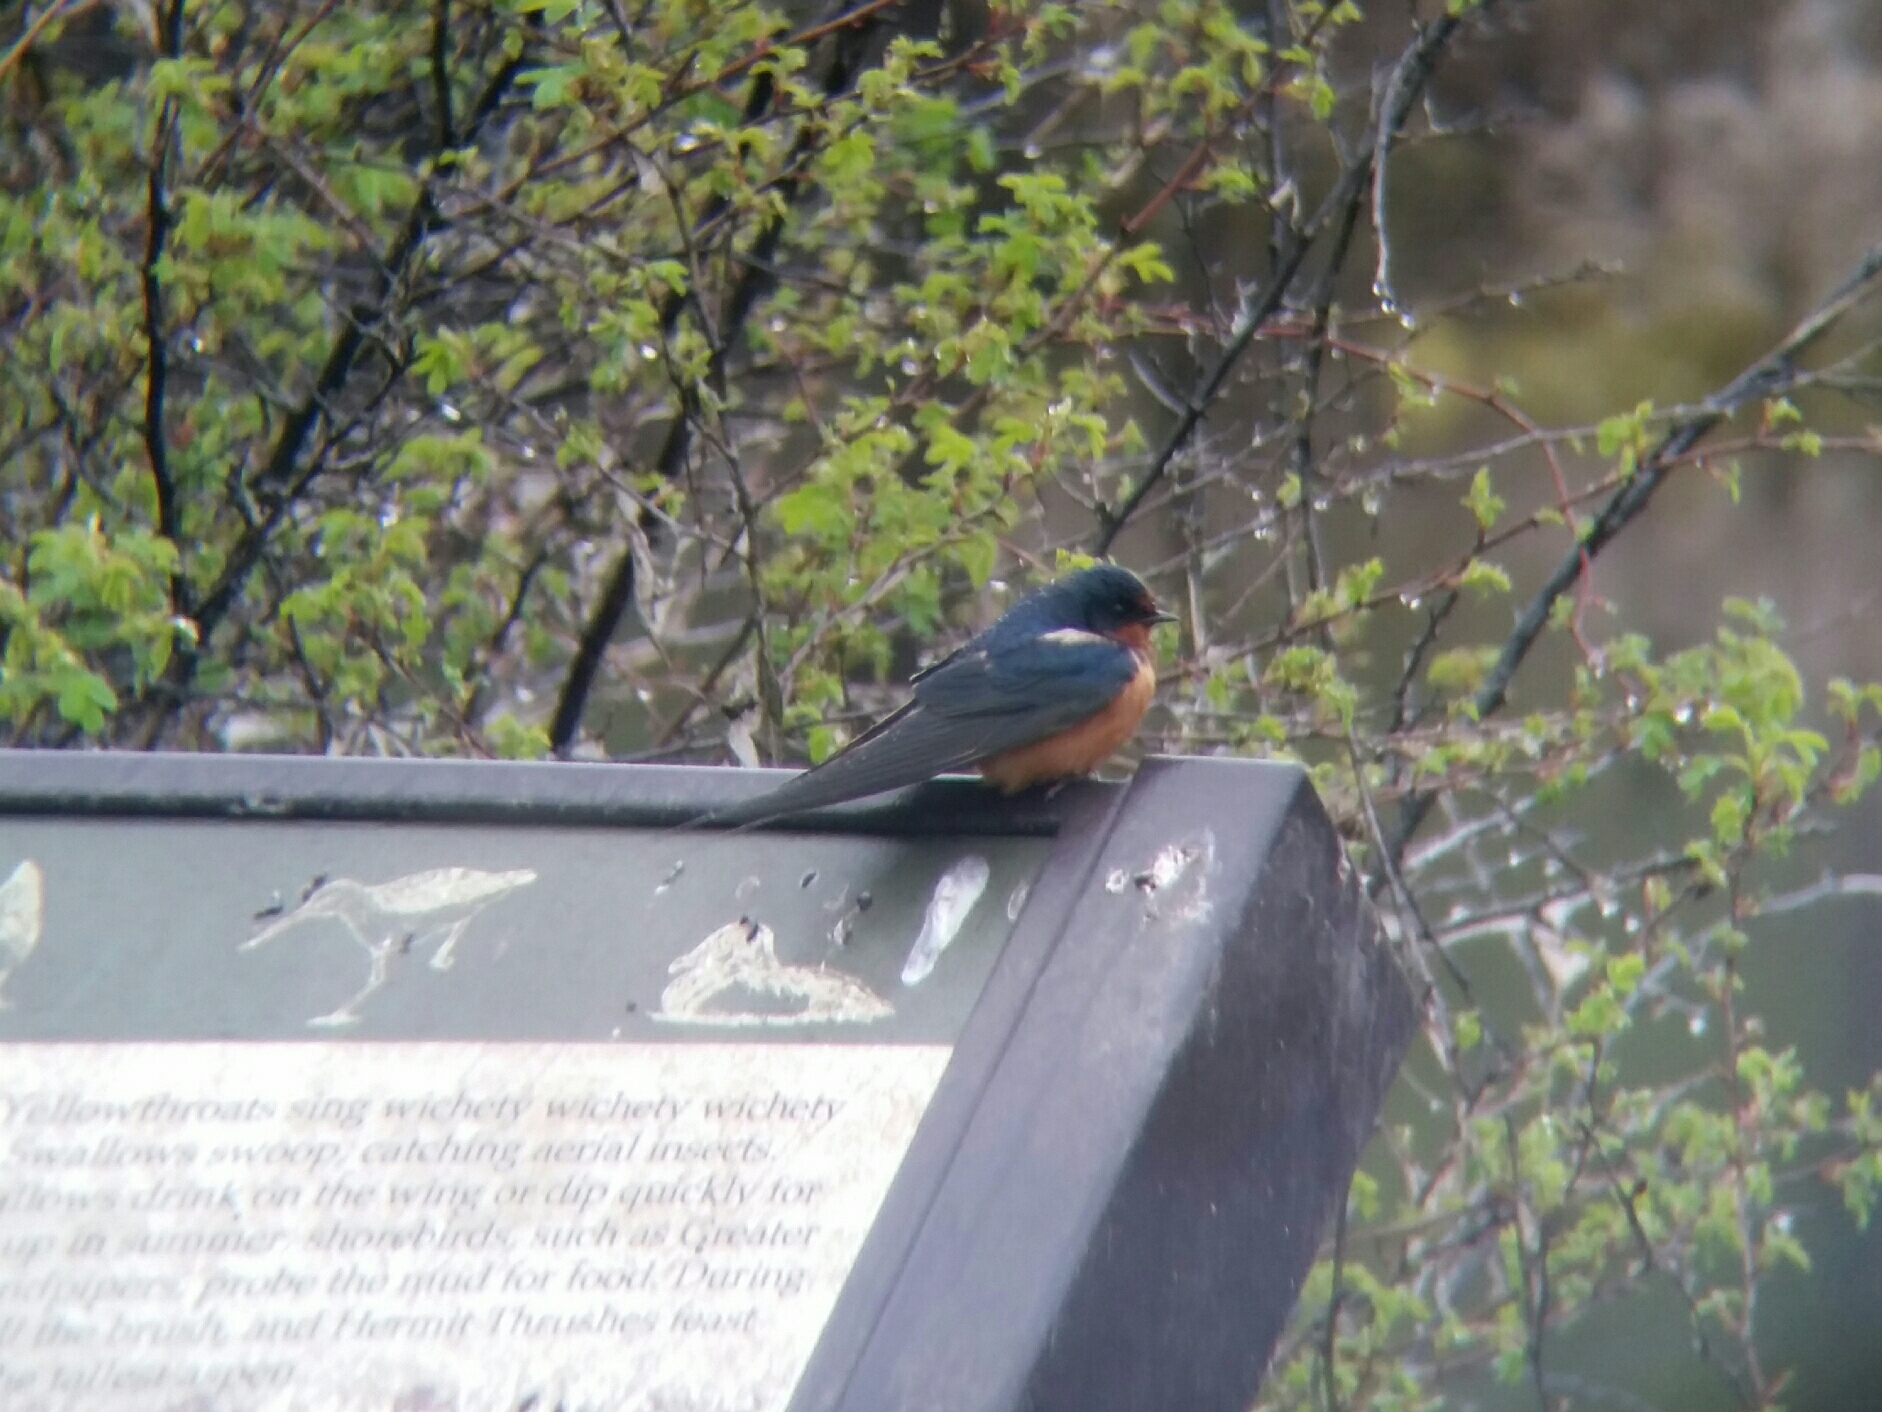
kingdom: Animalia
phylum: Chordata
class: Aves
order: Passeriformes
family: Hirundinidae
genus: Hirundo
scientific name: Hirundo rustica
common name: Barn swallow
